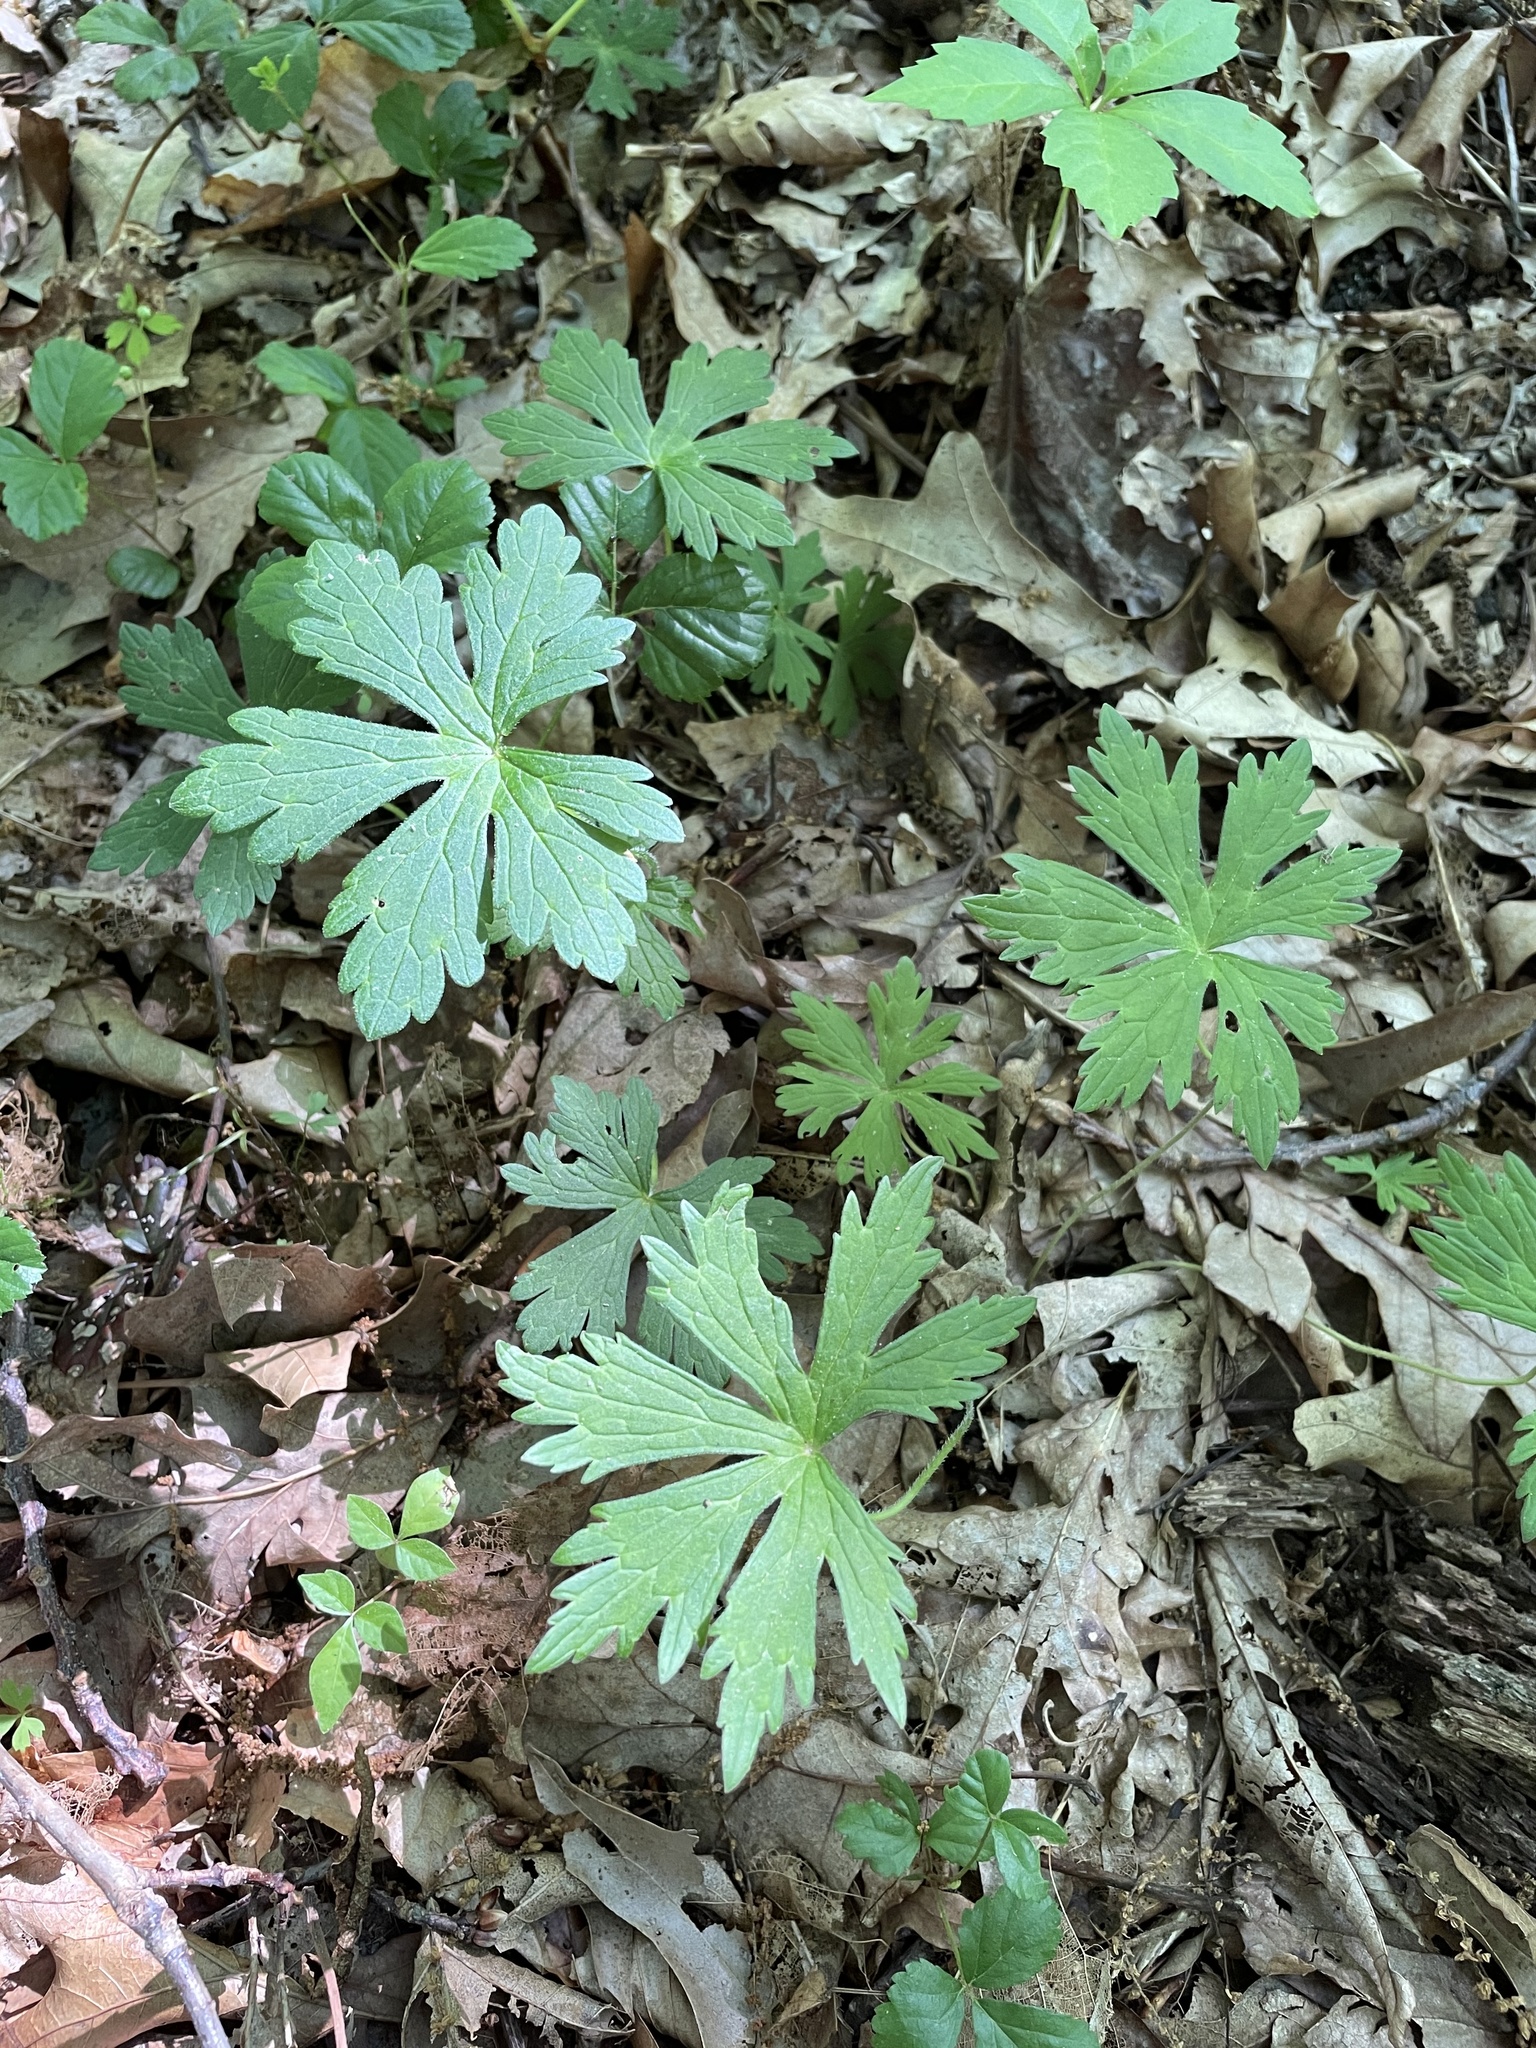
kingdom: Plantae
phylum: Tracheophyta
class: Magnoliopsida
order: Geraniales
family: Geraniaceae
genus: Geranium
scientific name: Geranium maculatum
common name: Spotted geranium
